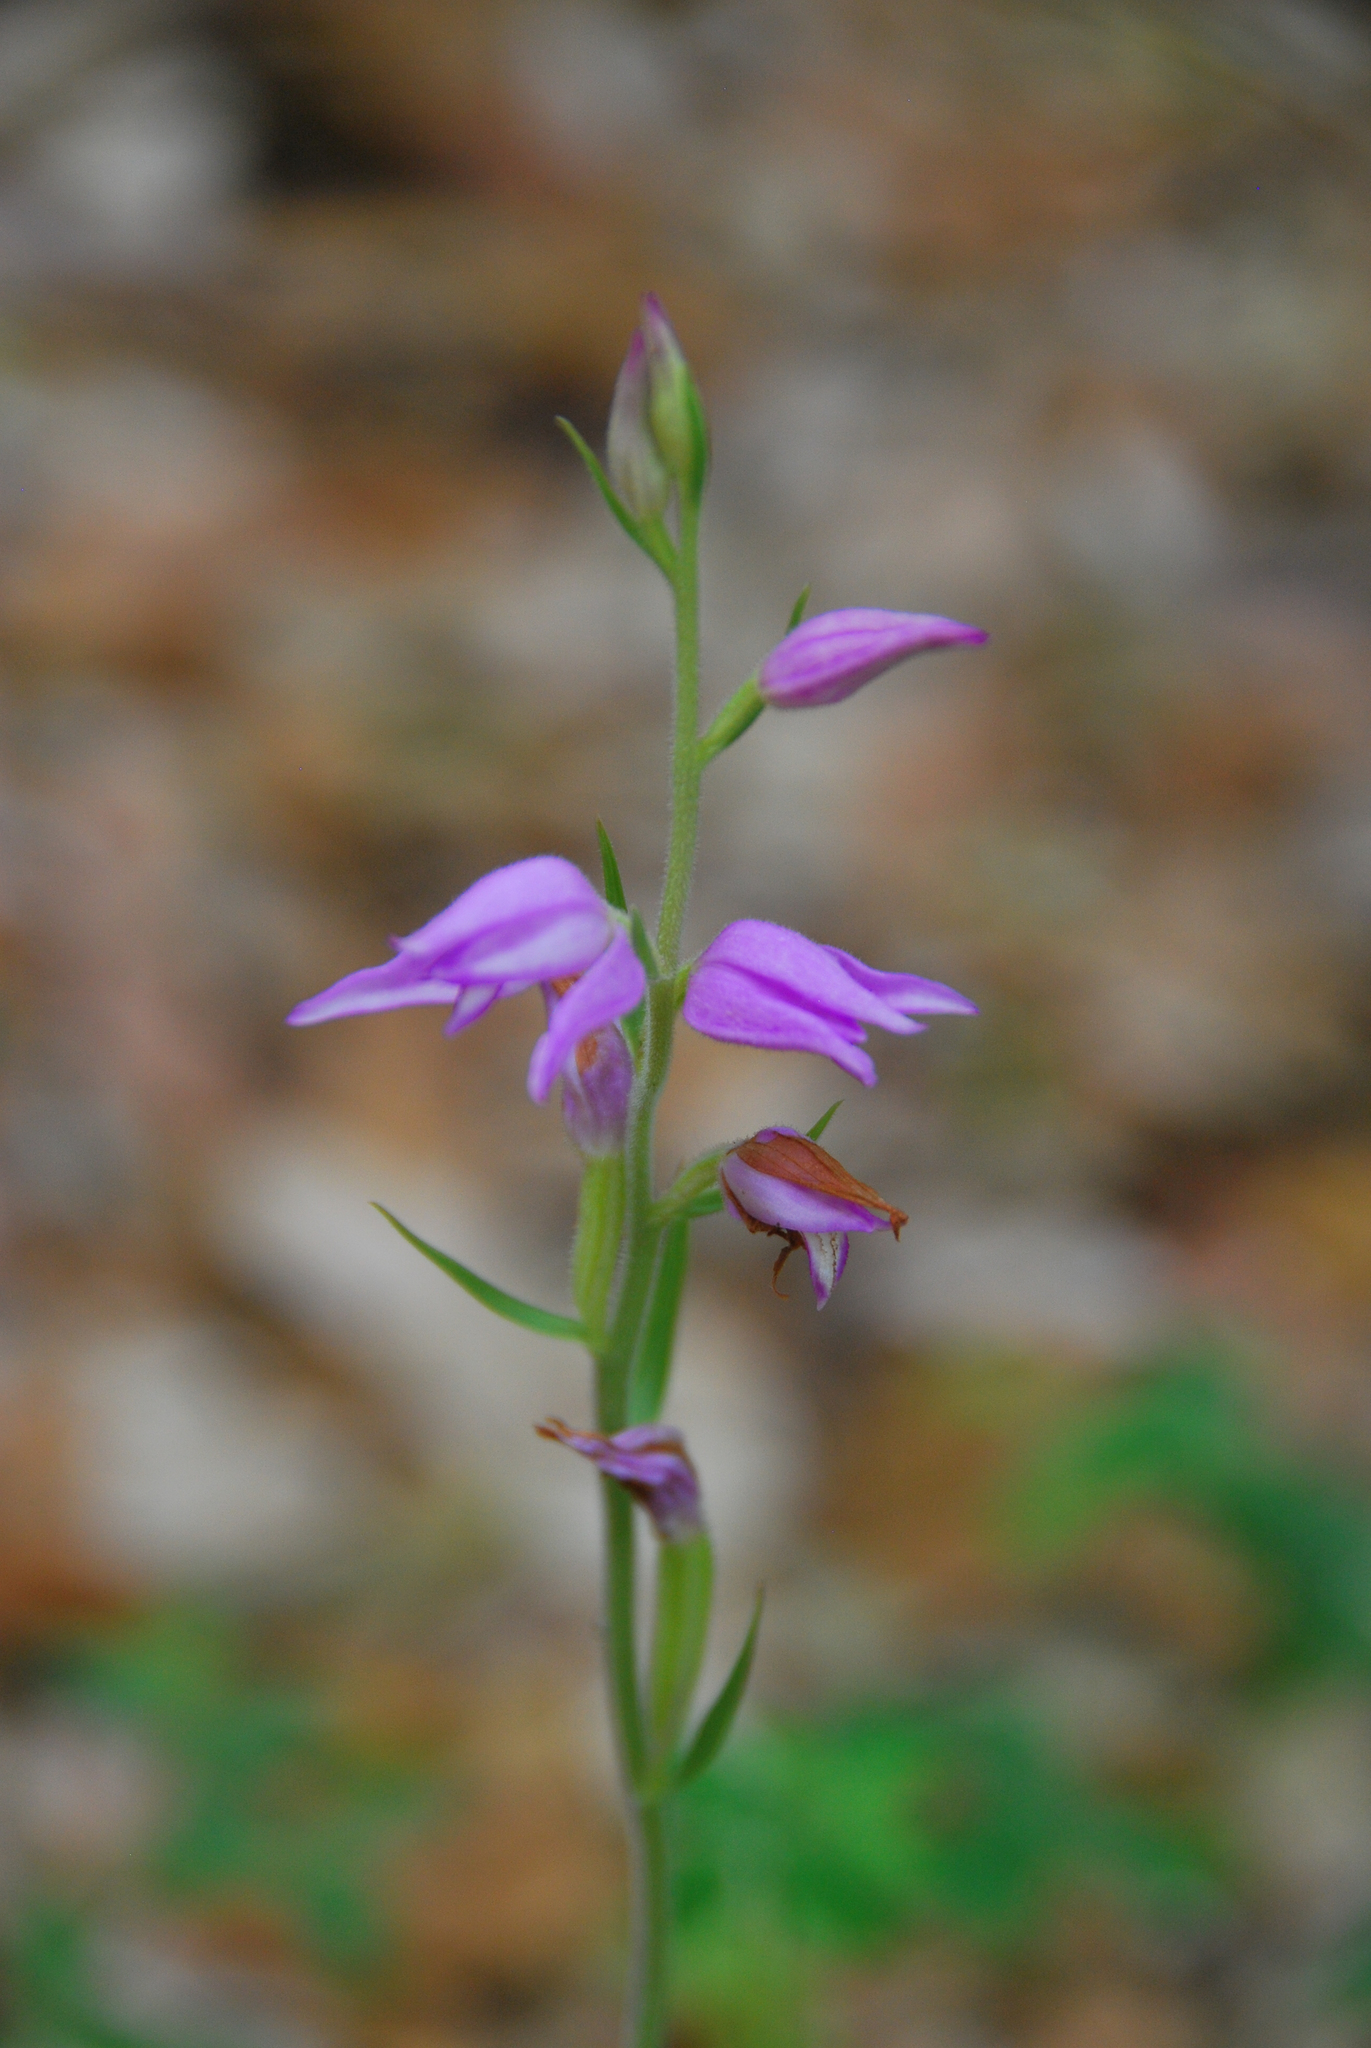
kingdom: Plantae
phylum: Tracheophyta
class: Liliopsida
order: Asparagales
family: Orchidaceae
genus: Cephalanthera
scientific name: Cephalanthera rubra
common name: Red helleborine
